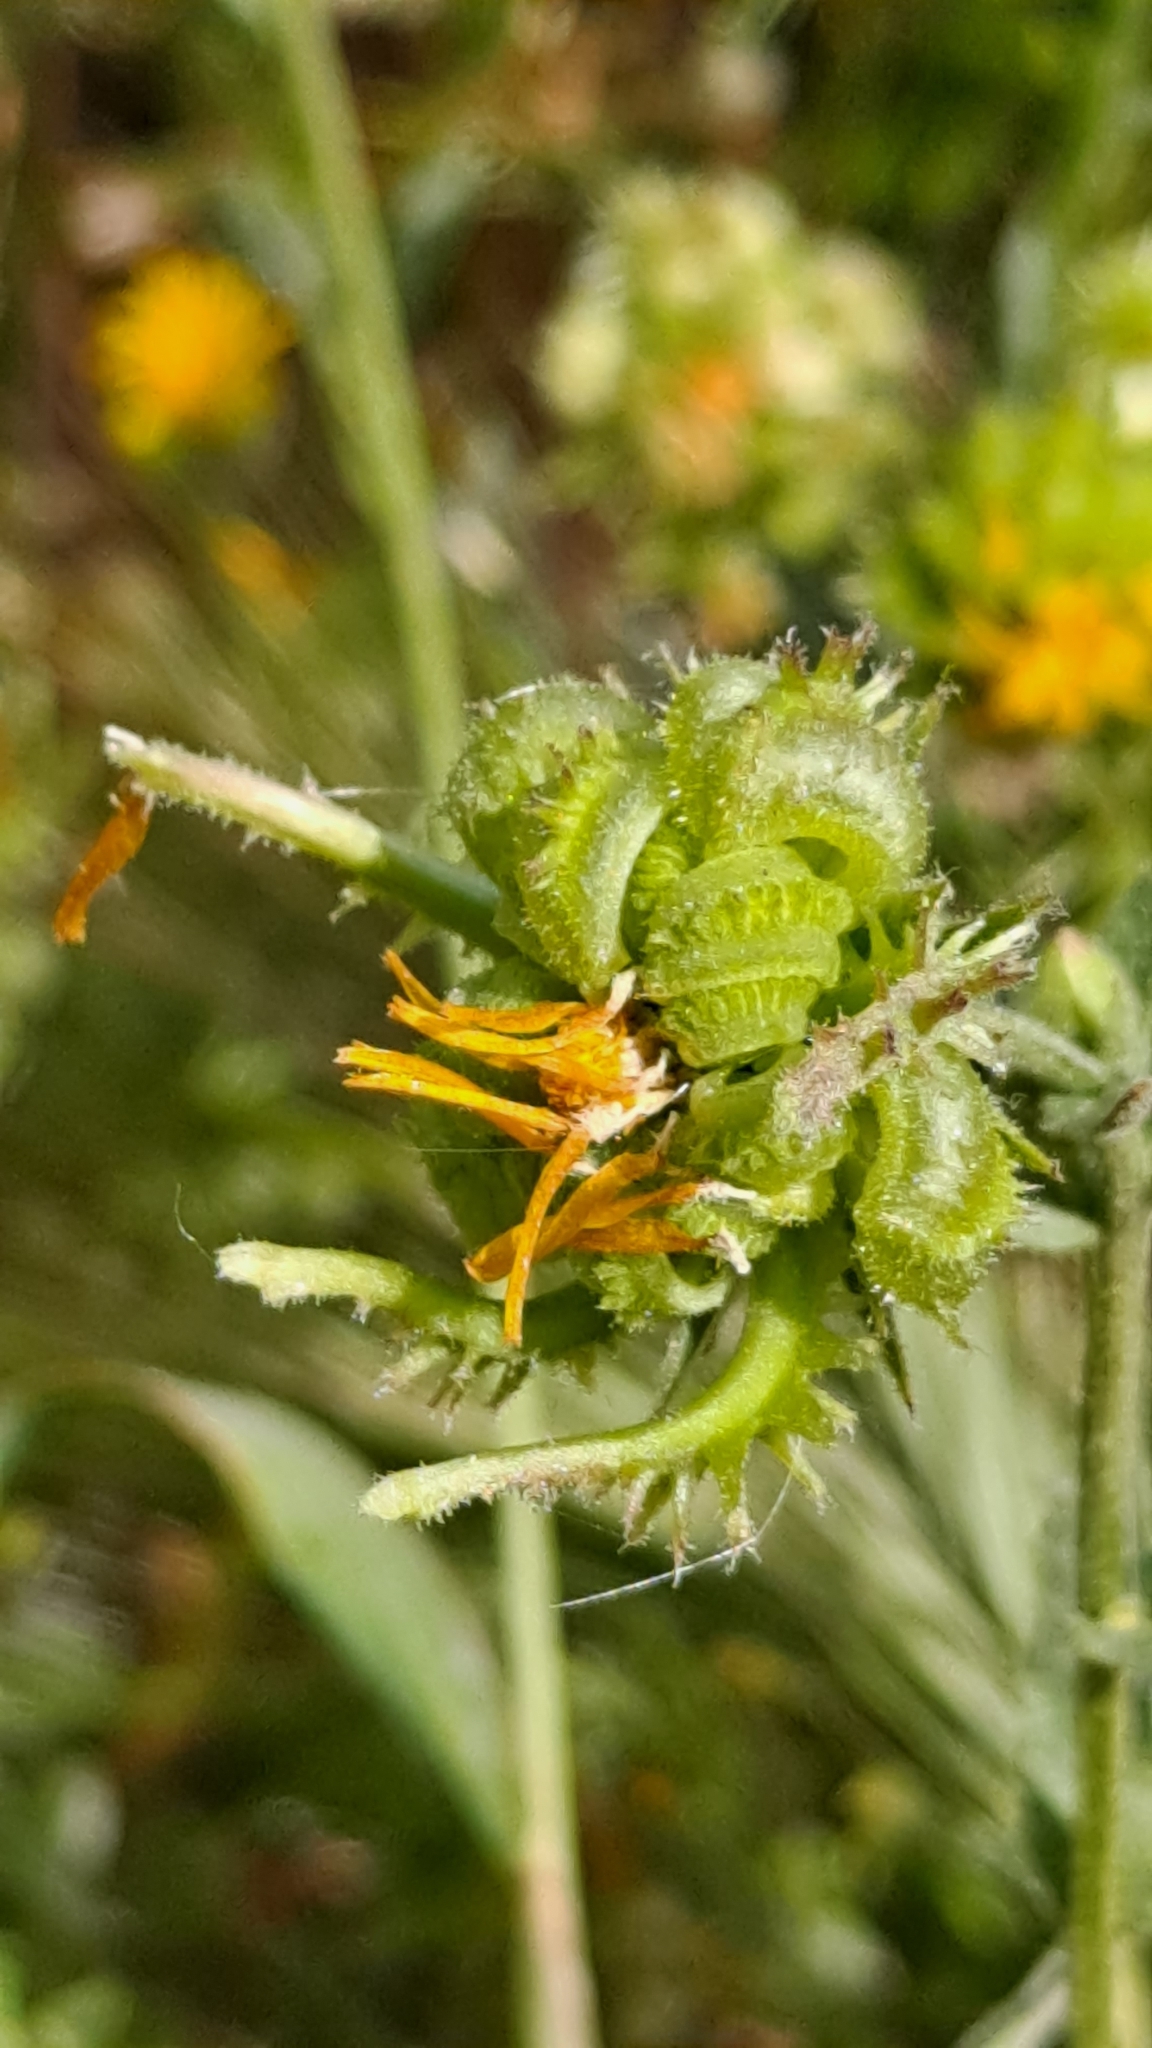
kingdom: Plantae
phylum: Tracheophyta
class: Magnoliopsida
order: Asterales
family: Asteraceae
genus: Calendula
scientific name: Calendula arvensis
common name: Field marigold
